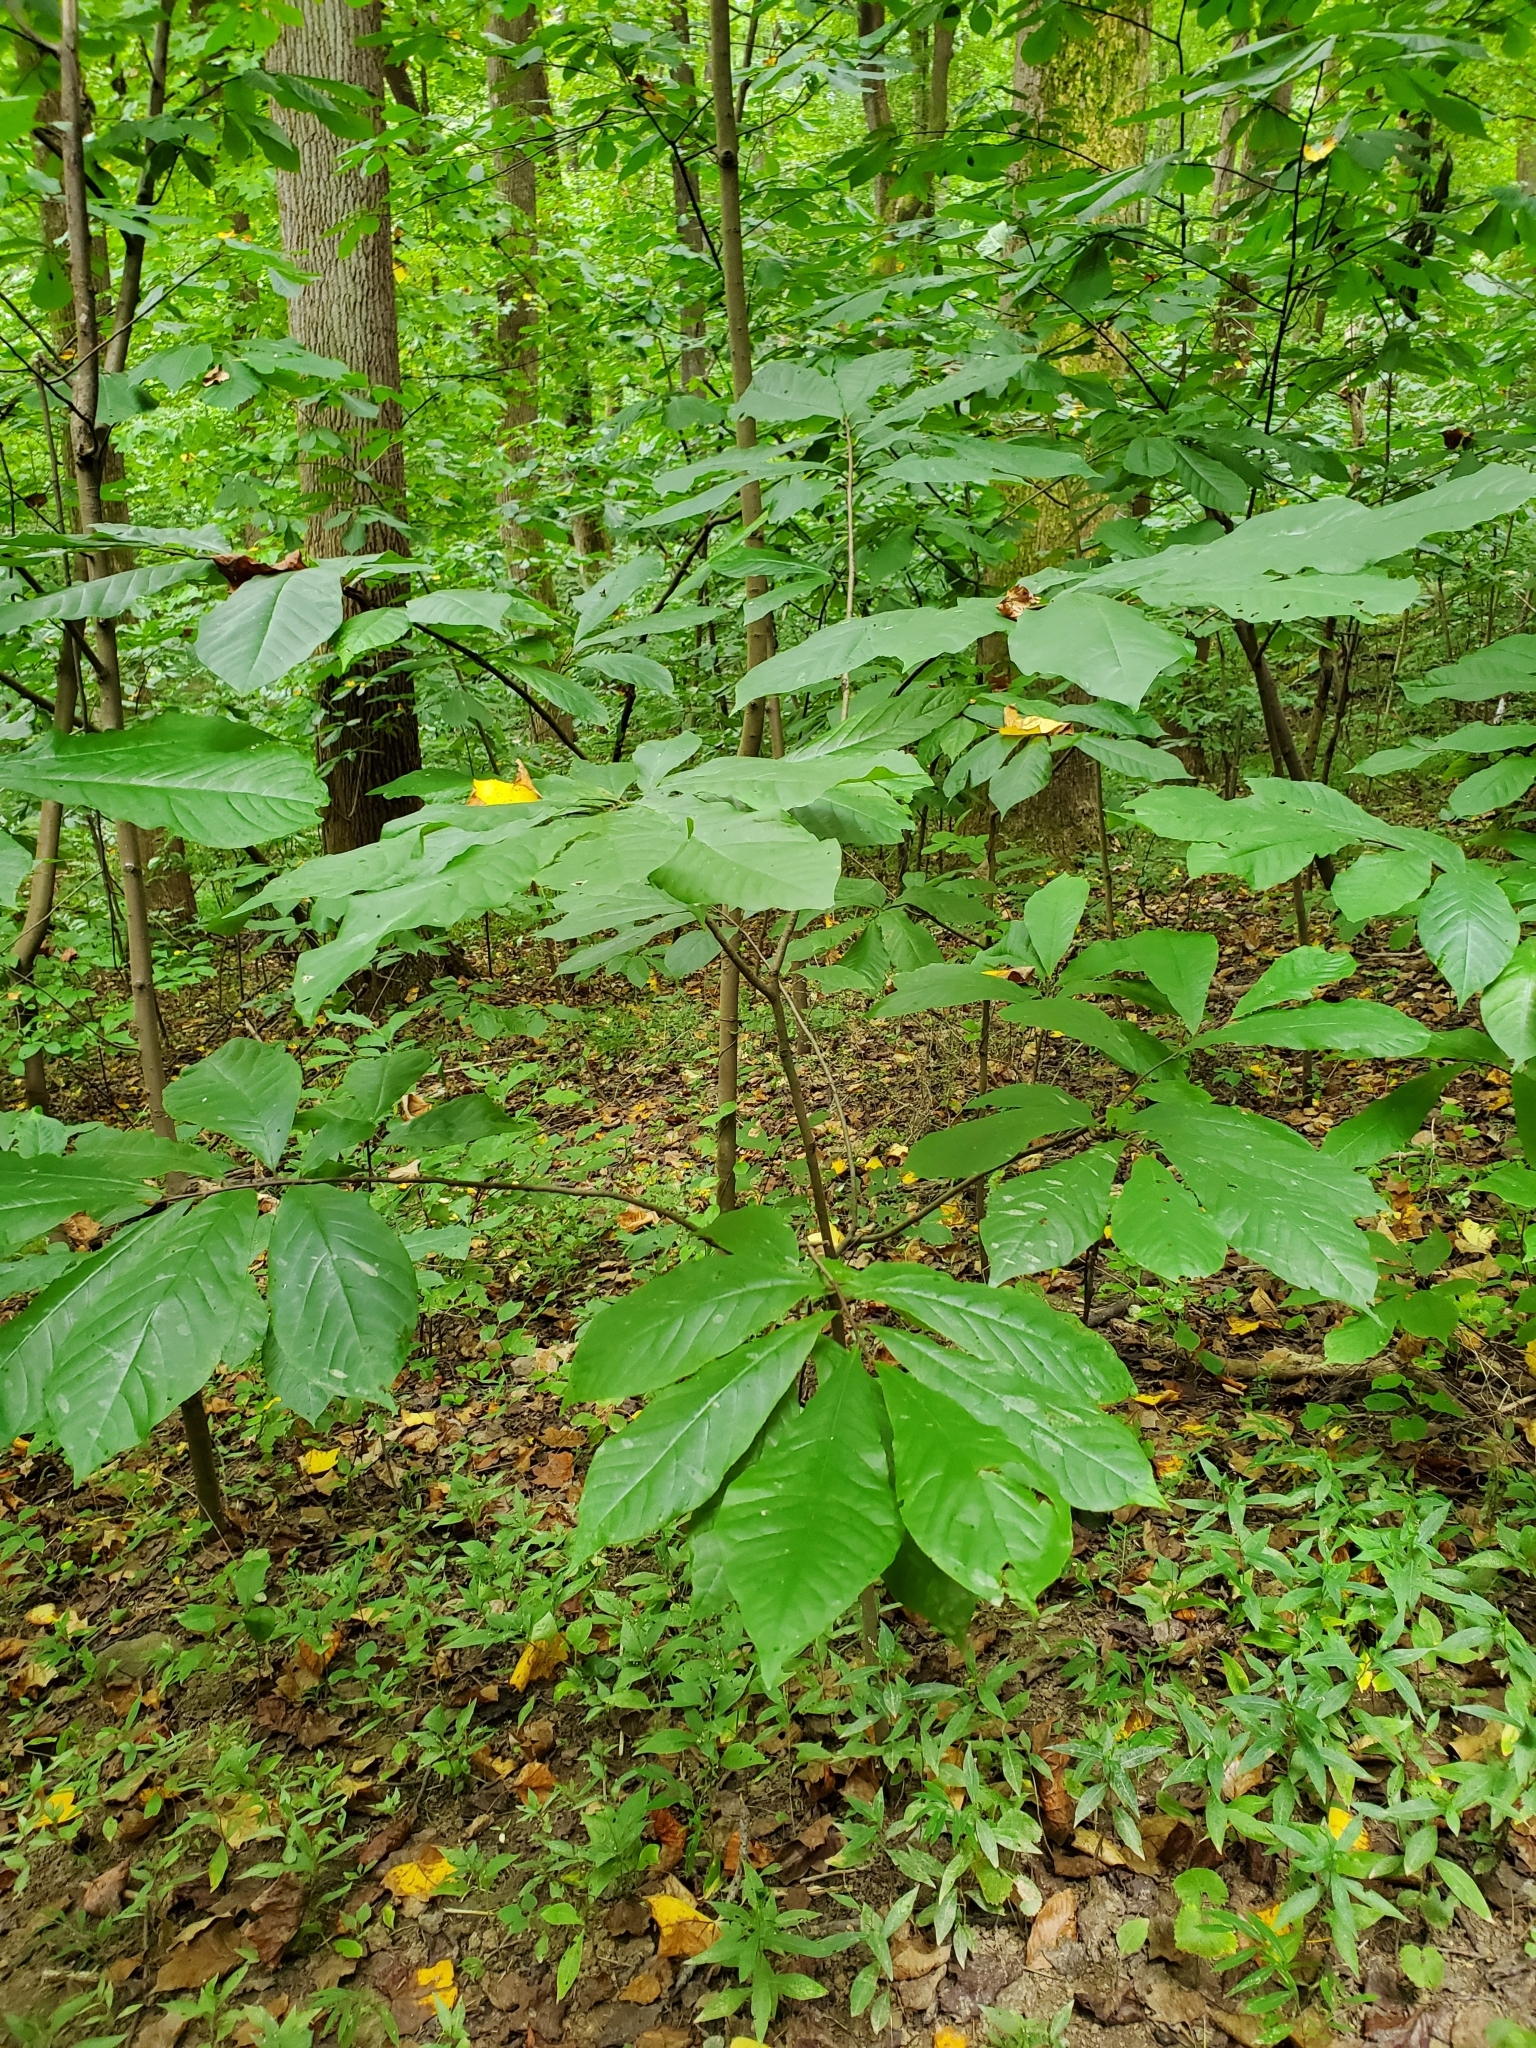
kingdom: Plantae
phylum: Tracheophyta
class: Magnoliopsida
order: Magnoliales
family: Annonaceae
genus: Asimina
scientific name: Asimina triloba
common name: Dog-banana
